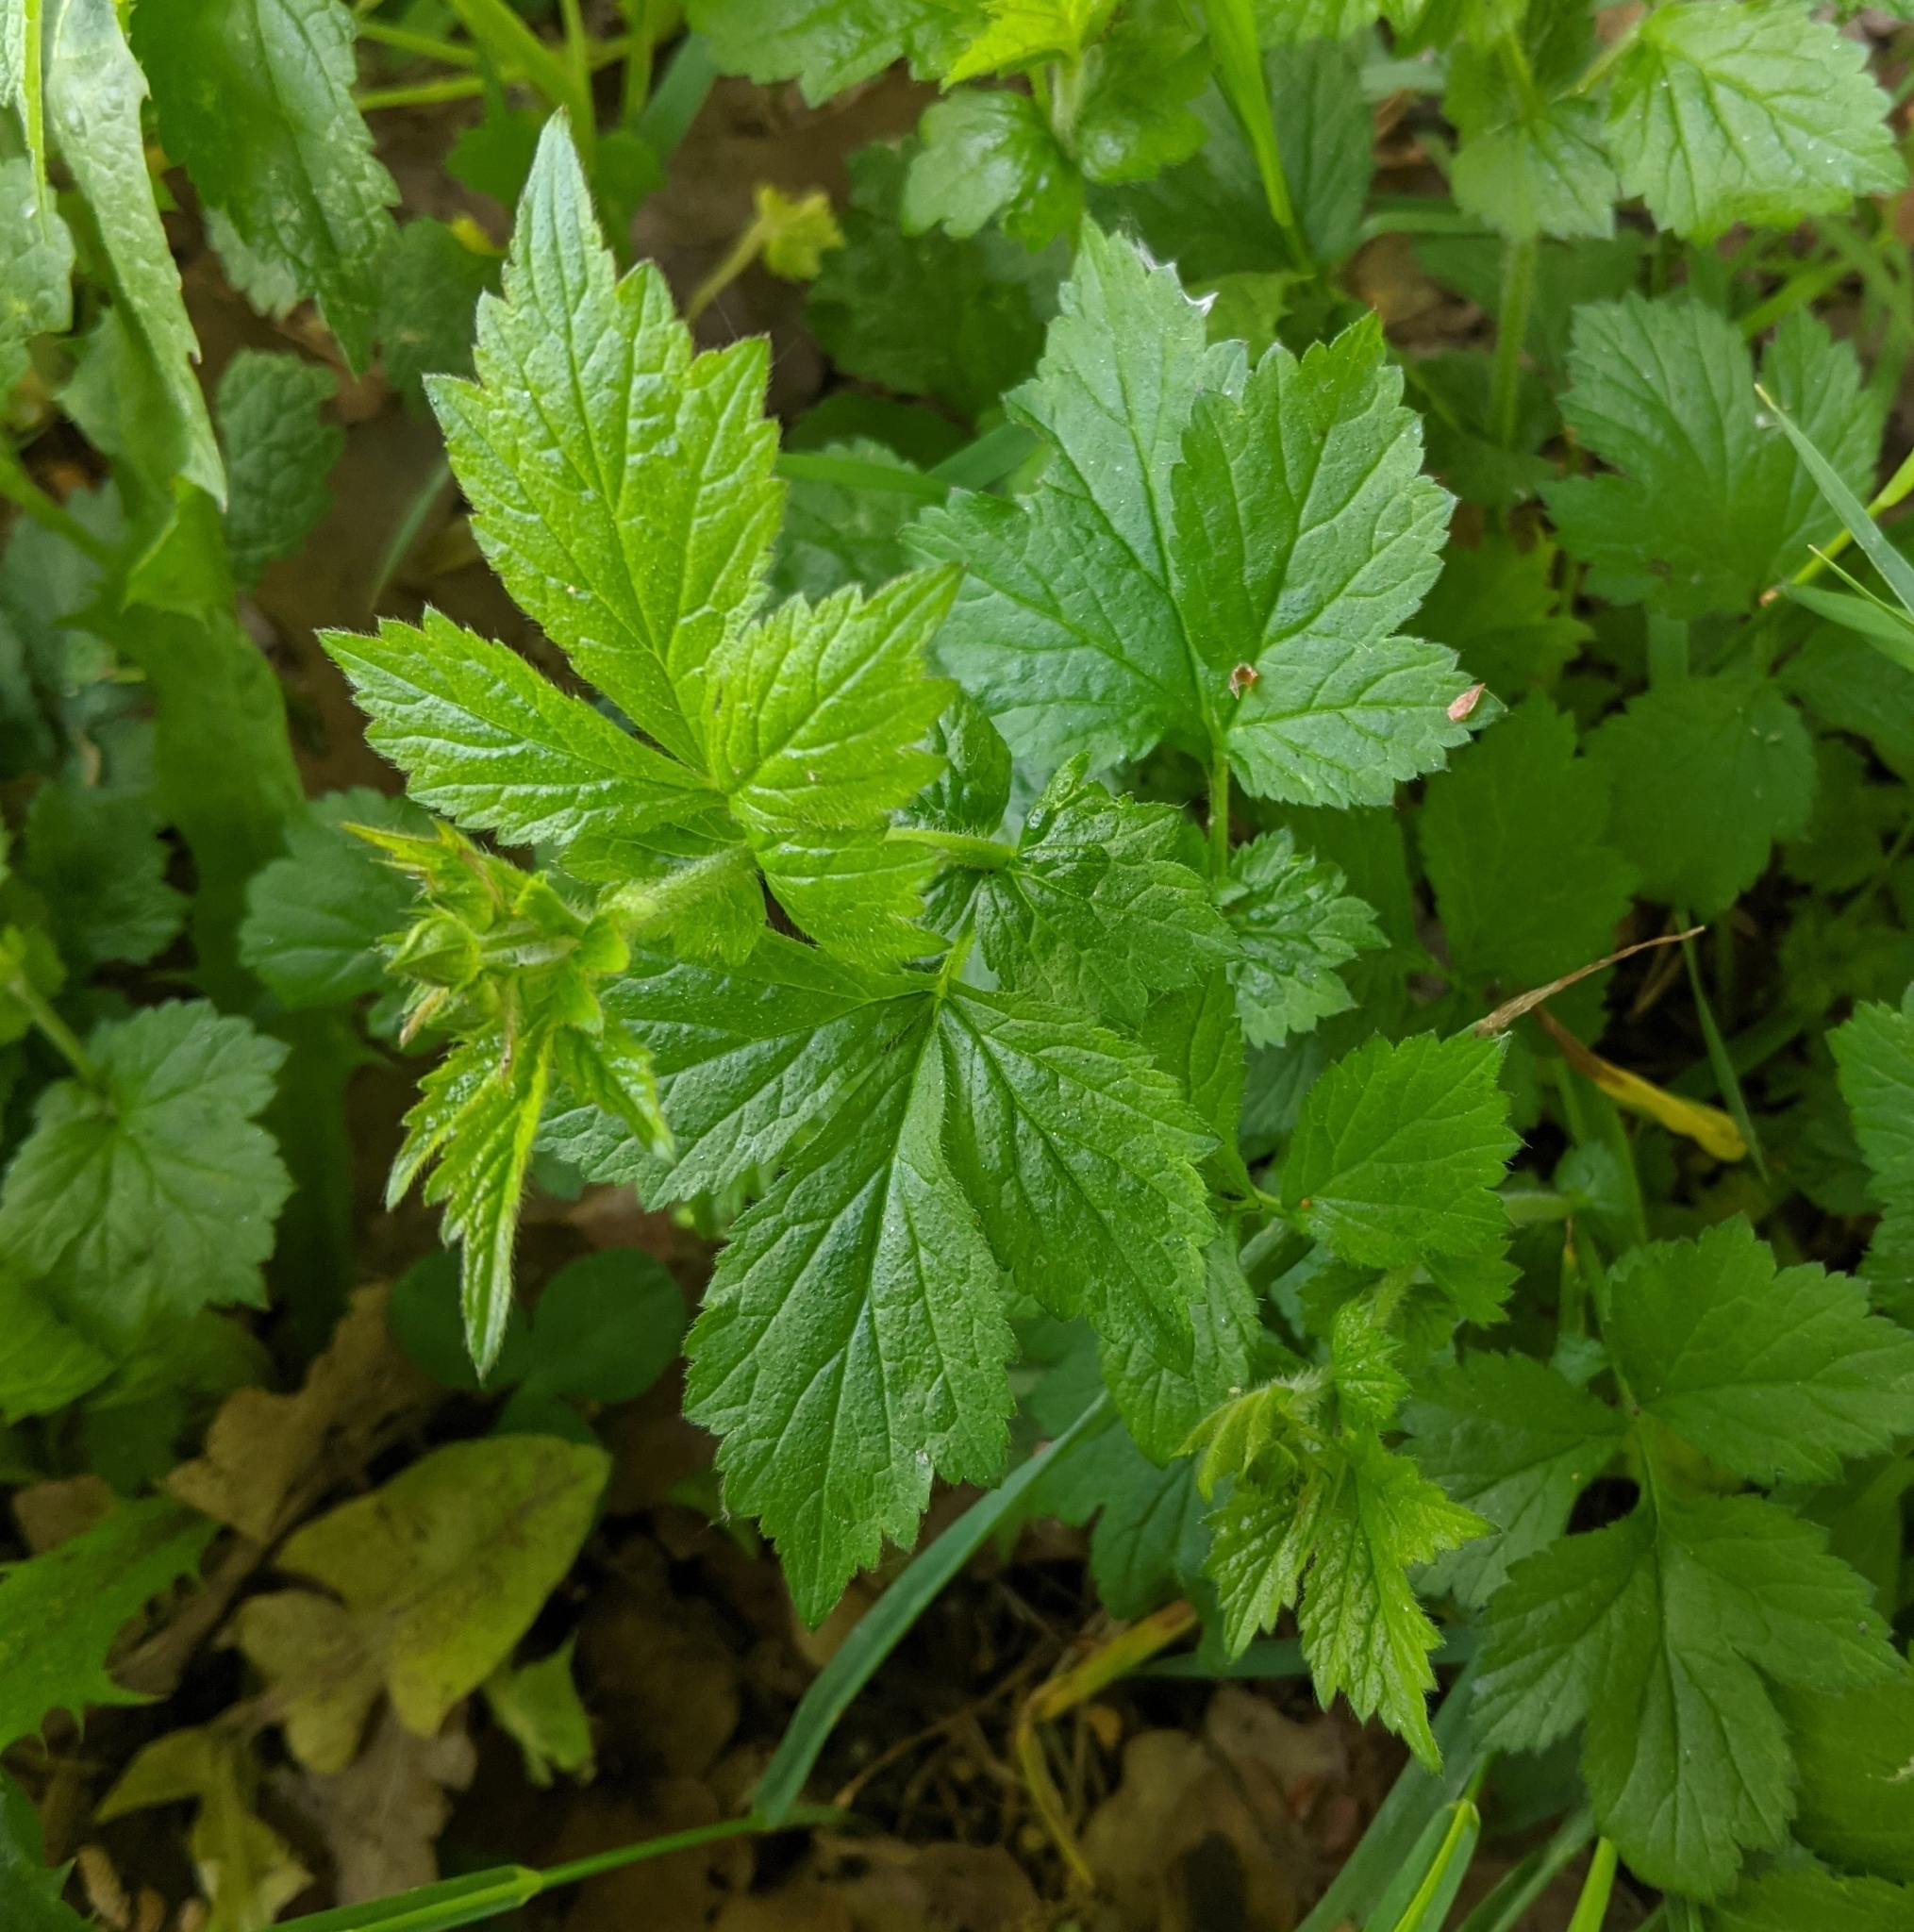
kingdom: Plantae
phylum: Tracheophyta
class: Magnoliopsida
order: Rosales
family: Rosaceae
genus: Geum
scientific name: Geum urbanum
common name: Wood avens
